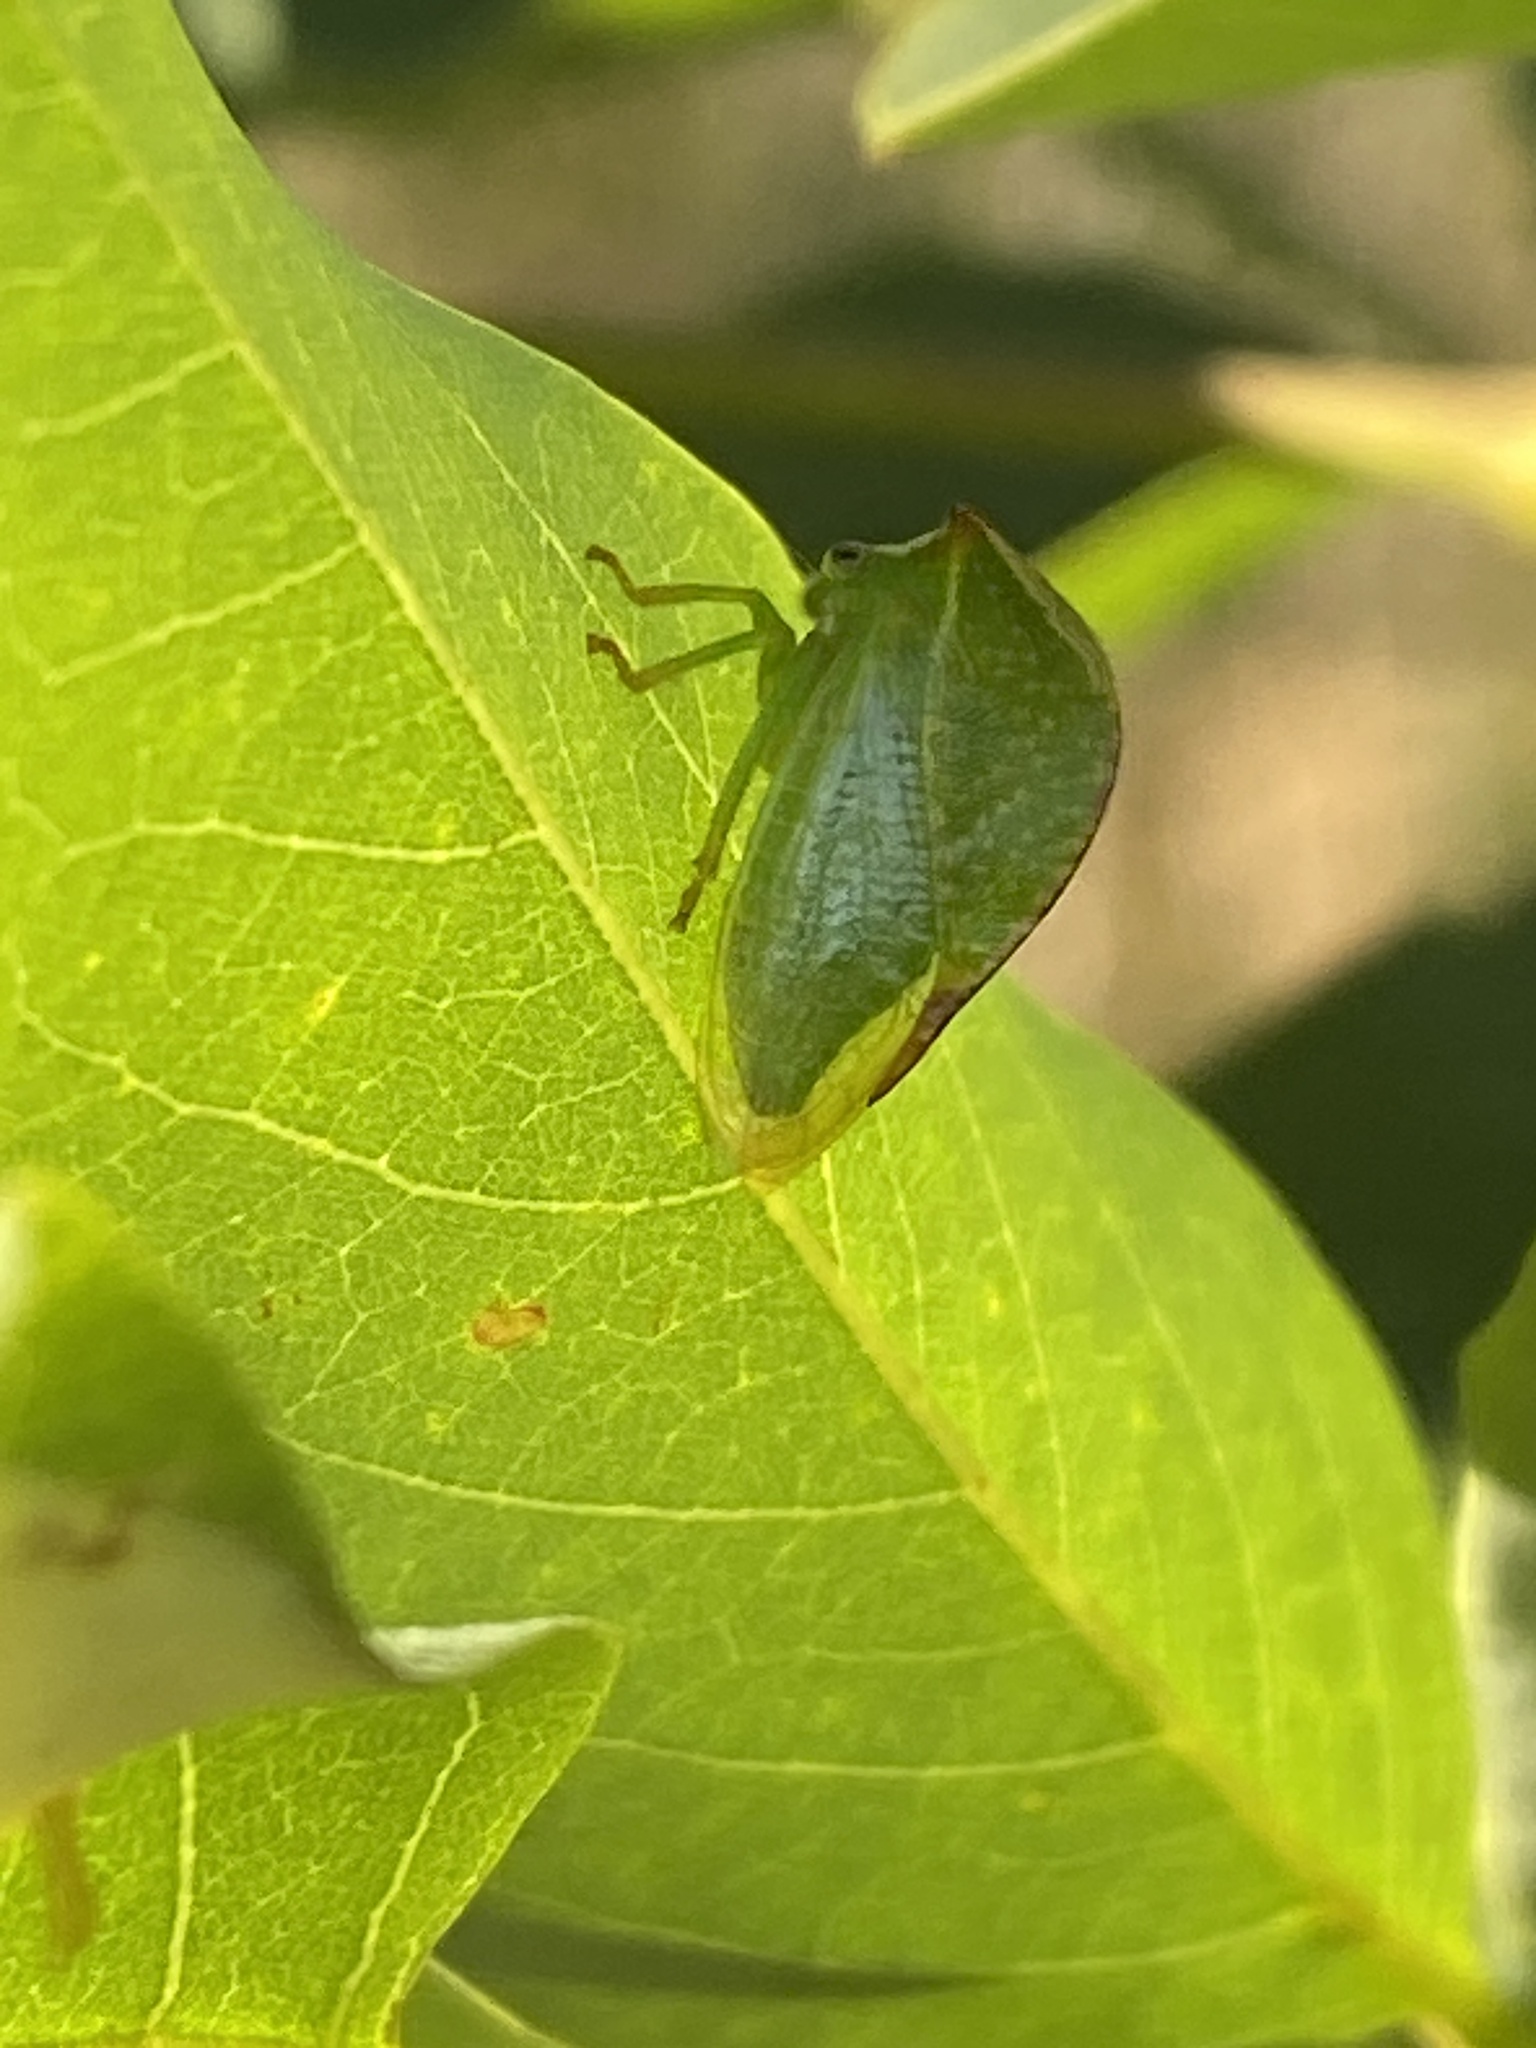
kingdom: Animalia
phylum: Arthropoda
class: Insecta
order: Hemiptera
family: Membracidae
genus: Stictocephala
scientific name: Stictocephala bisonia
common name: American buffalo treehopper
